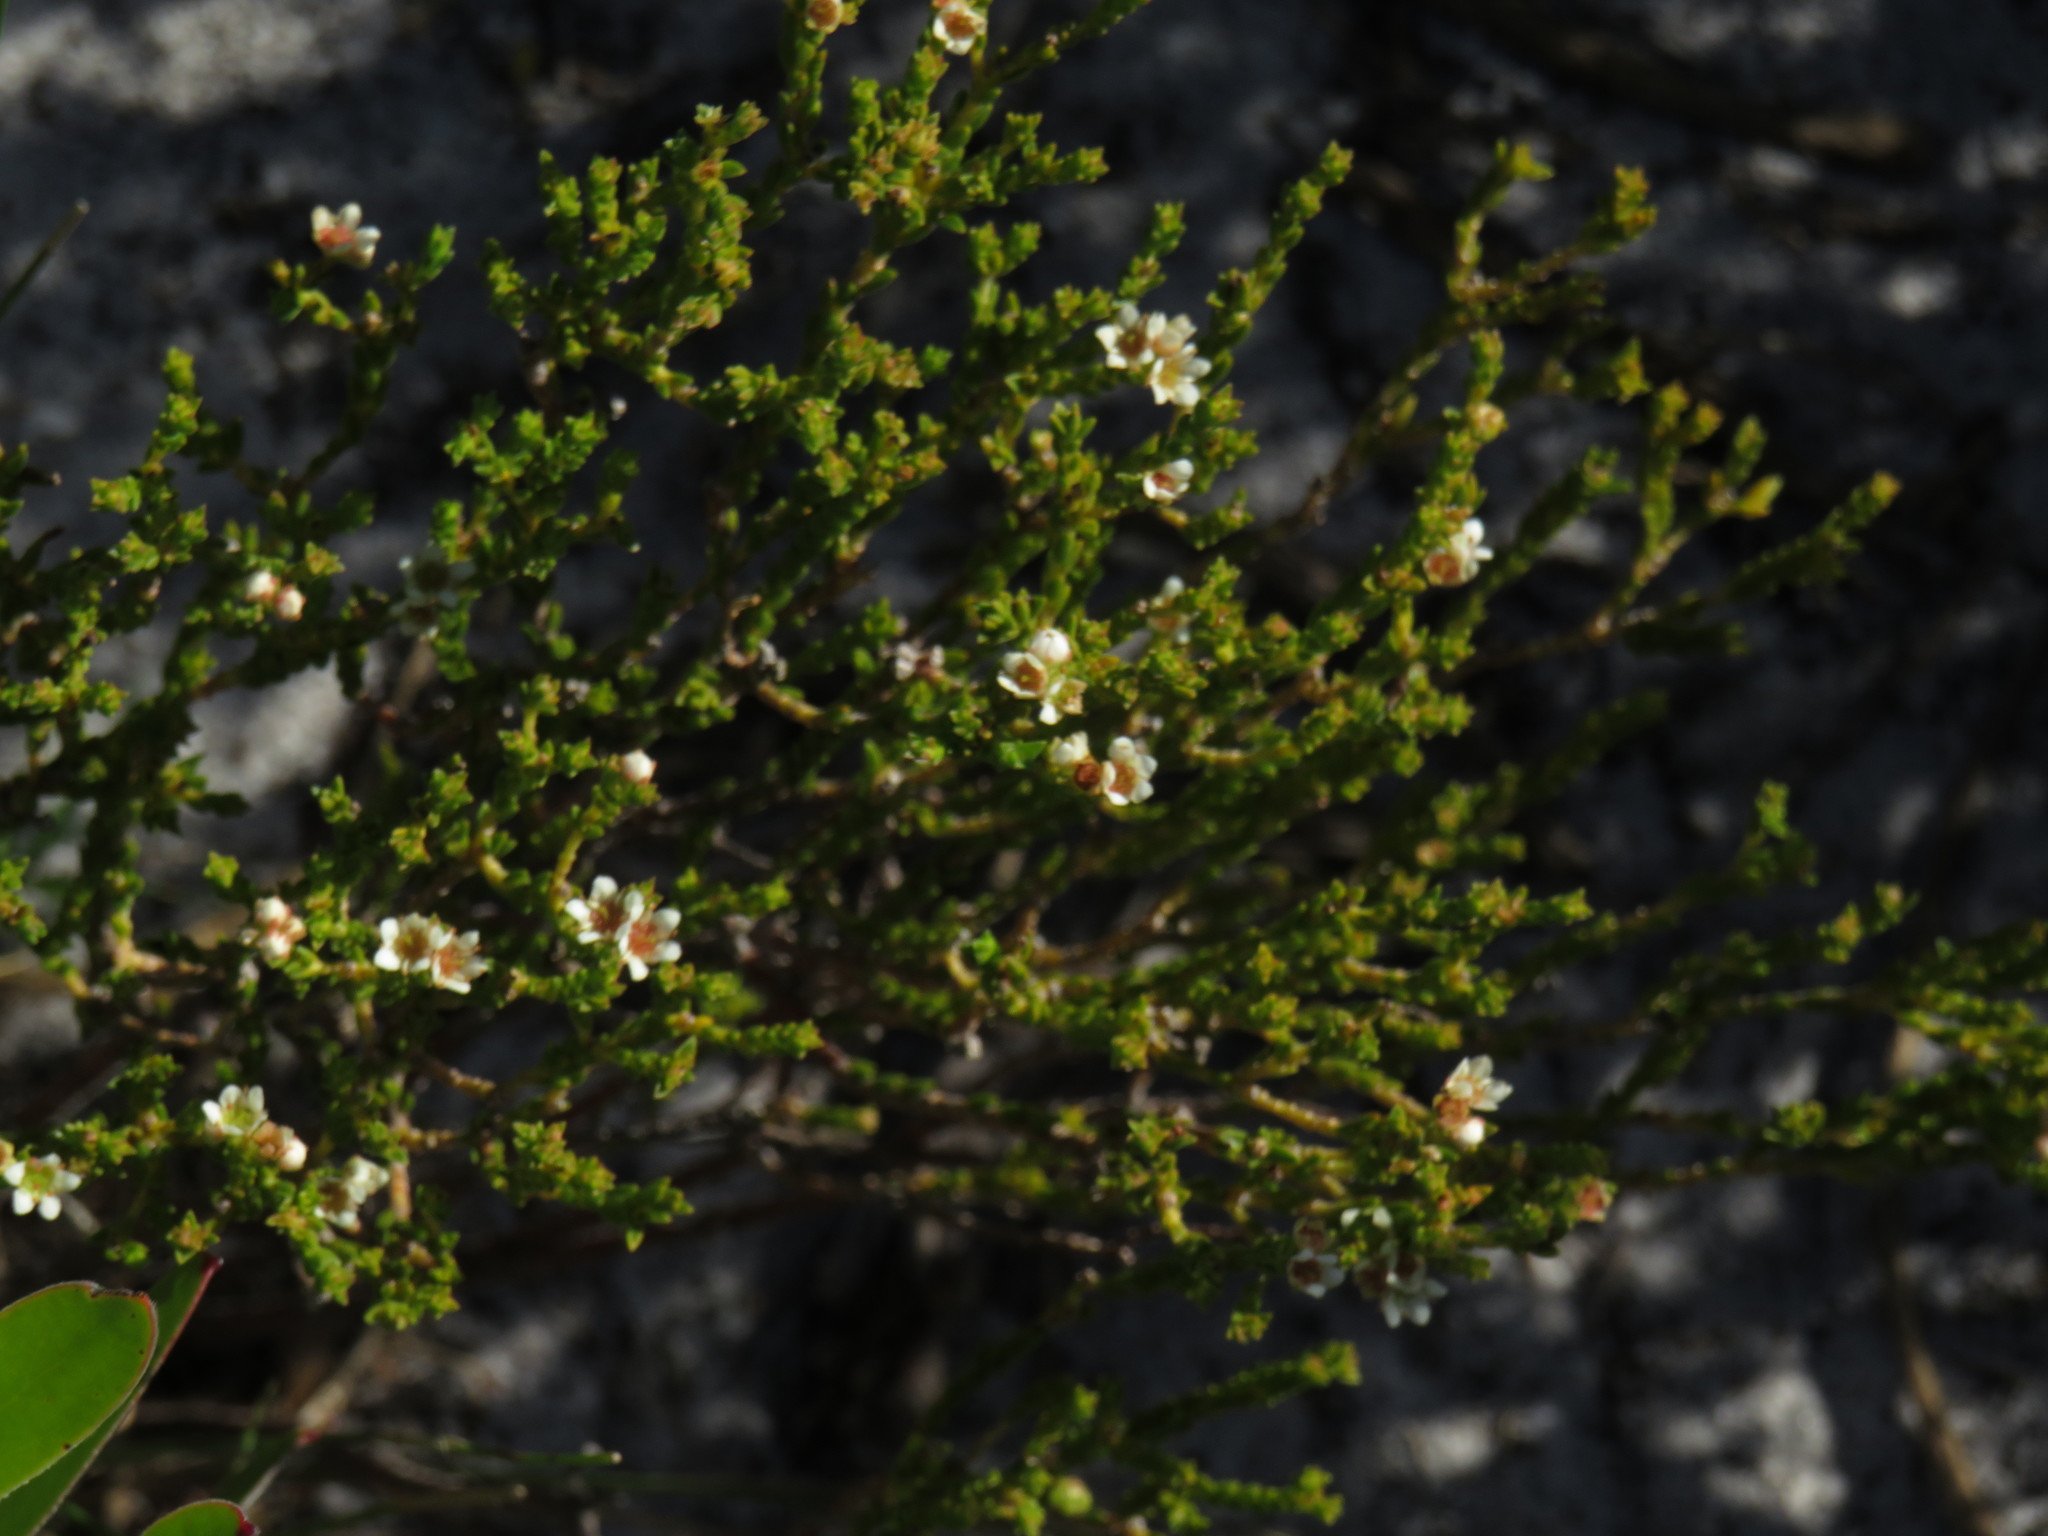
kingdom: Plantae
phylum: Tracheophyta
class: Magnoliopsida
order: Sapindales
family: Rutaceae
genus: Diosma
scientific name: Diosma oppositifolia
